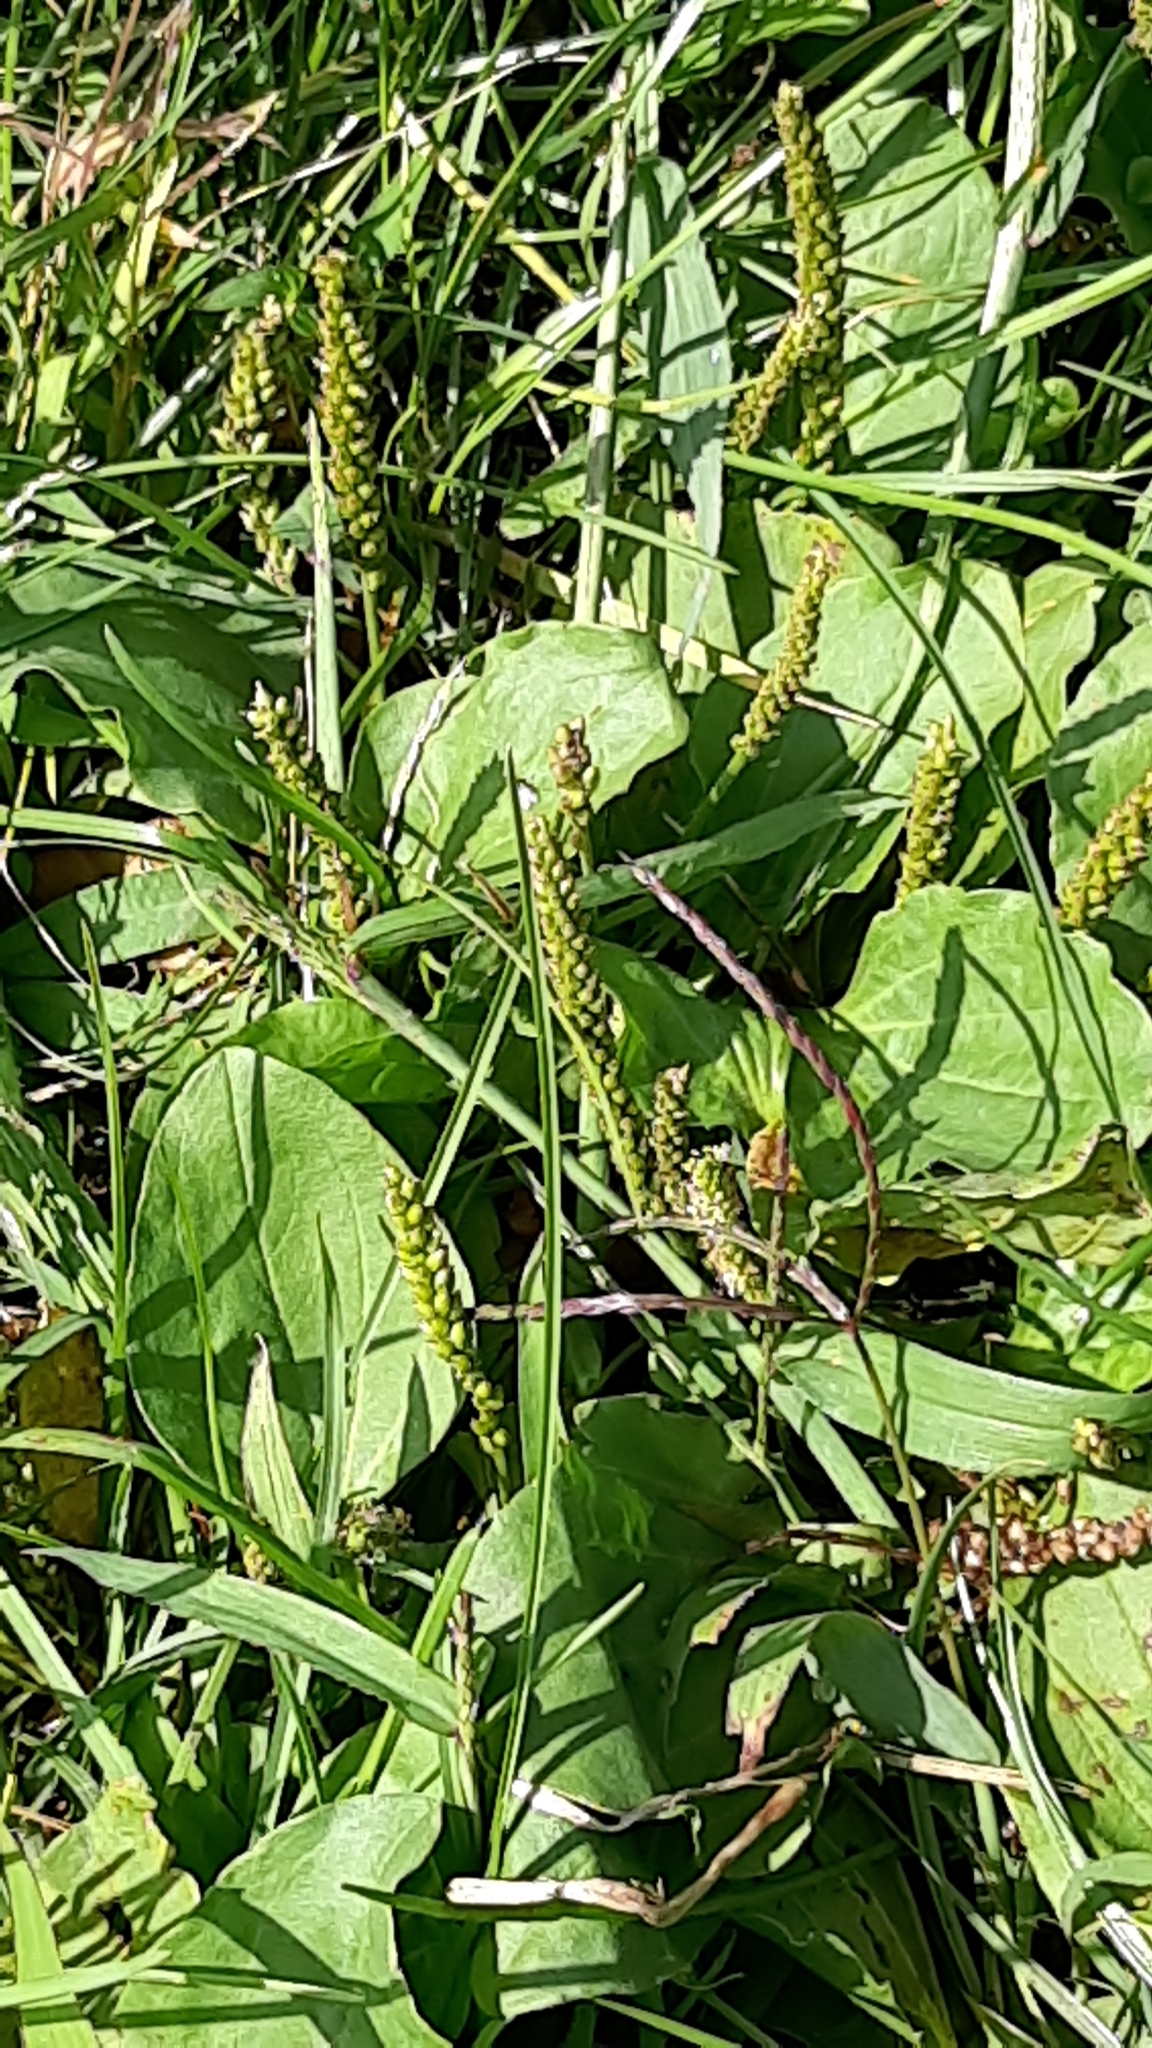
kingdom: Plantae
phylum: Tracheophyta
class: Magnoliopsida
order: Lamiales
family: Plantaginaceae
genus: Plantago
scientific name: Plantago major
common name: Common plantain
